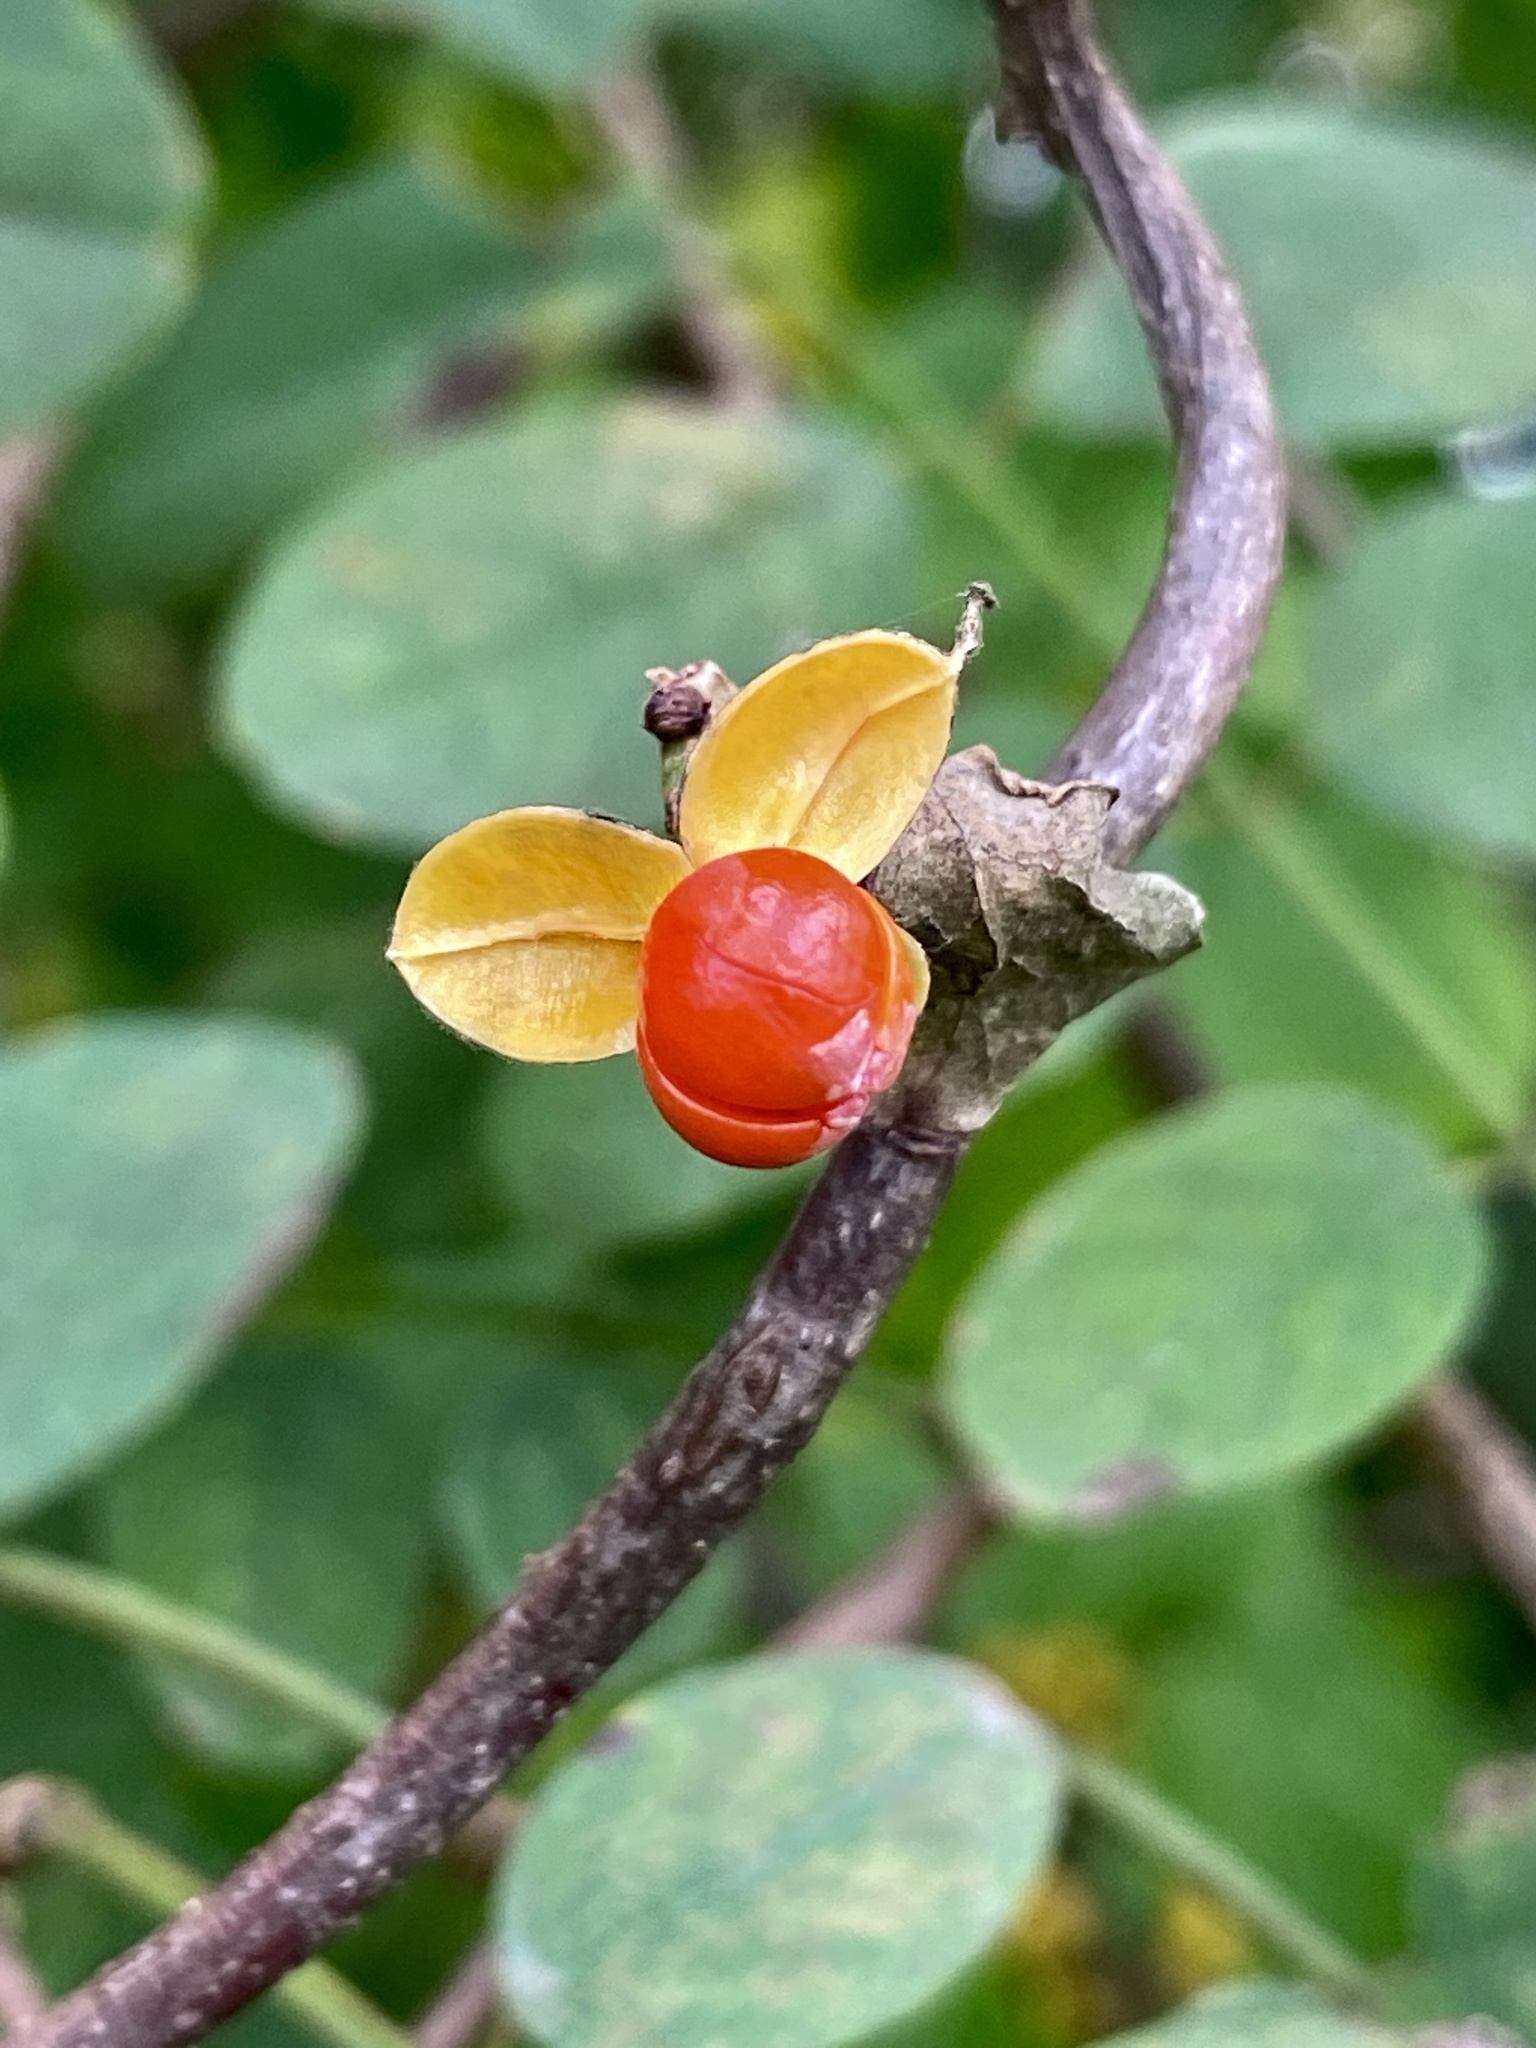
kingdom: Plantae
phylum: Tracheophyta
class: Magnoliopsida
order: Celastrales
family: Celastraceae
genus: Celastrus
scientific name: Celastrus orbiculatus
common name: Oriental bittersweet
